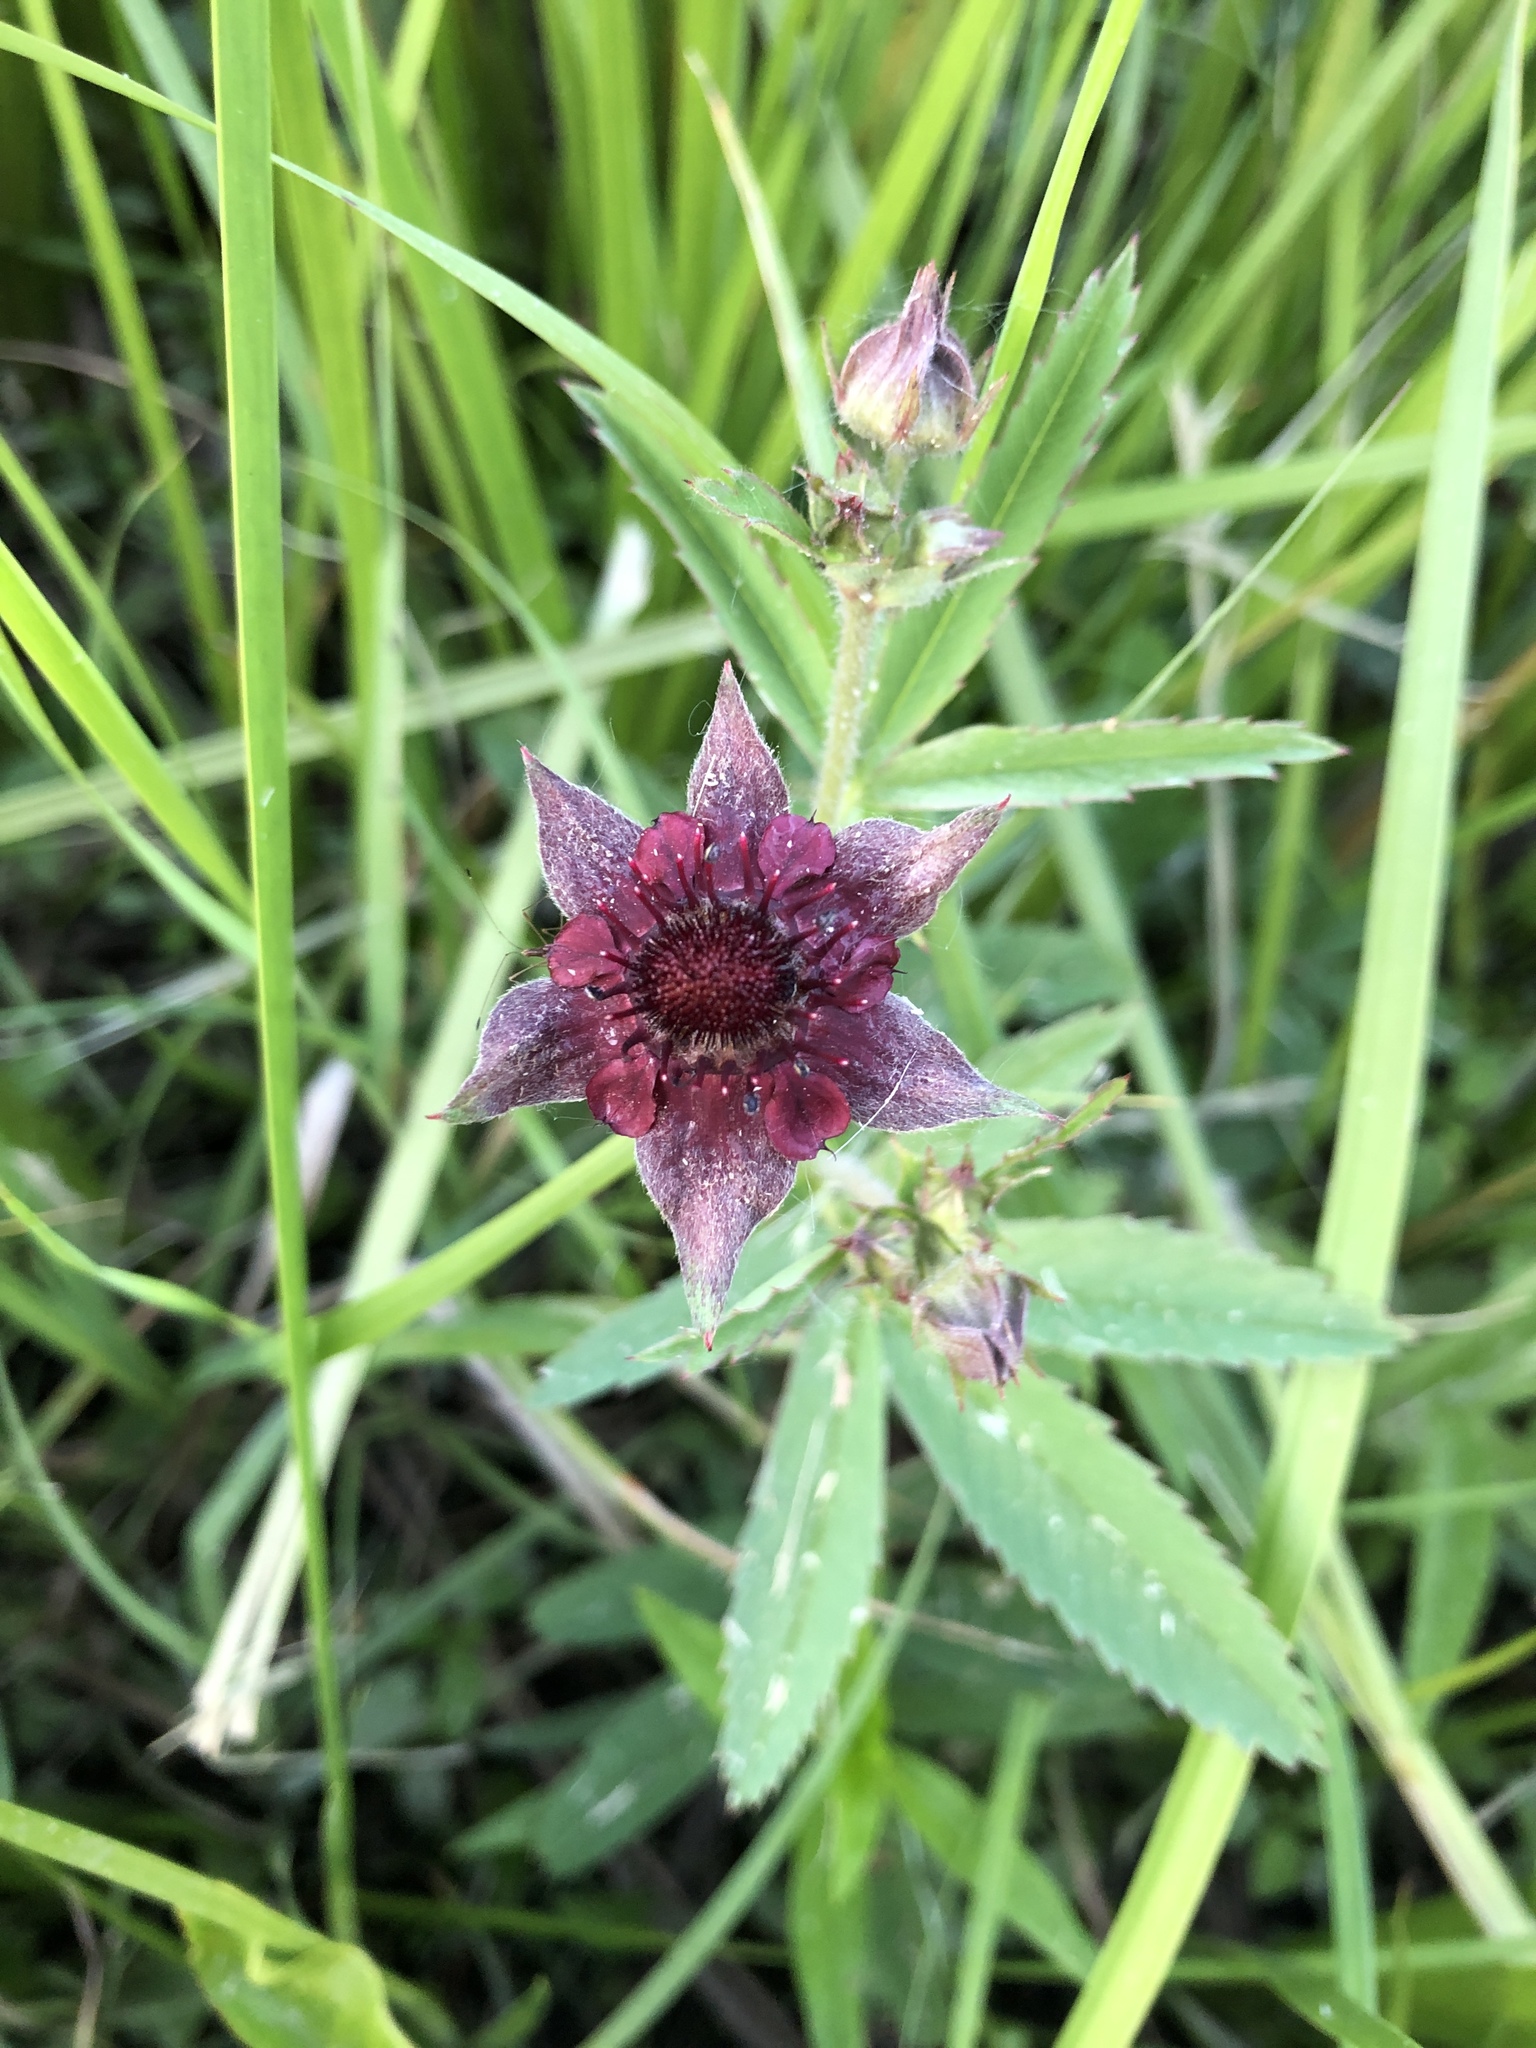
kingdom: Plantae
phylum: Tracheophyta
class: Magnoliopsida
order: Rosales
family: Rosaceae
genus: Comarum
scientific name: Comarum palustre
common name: Marsh cinquefoil
